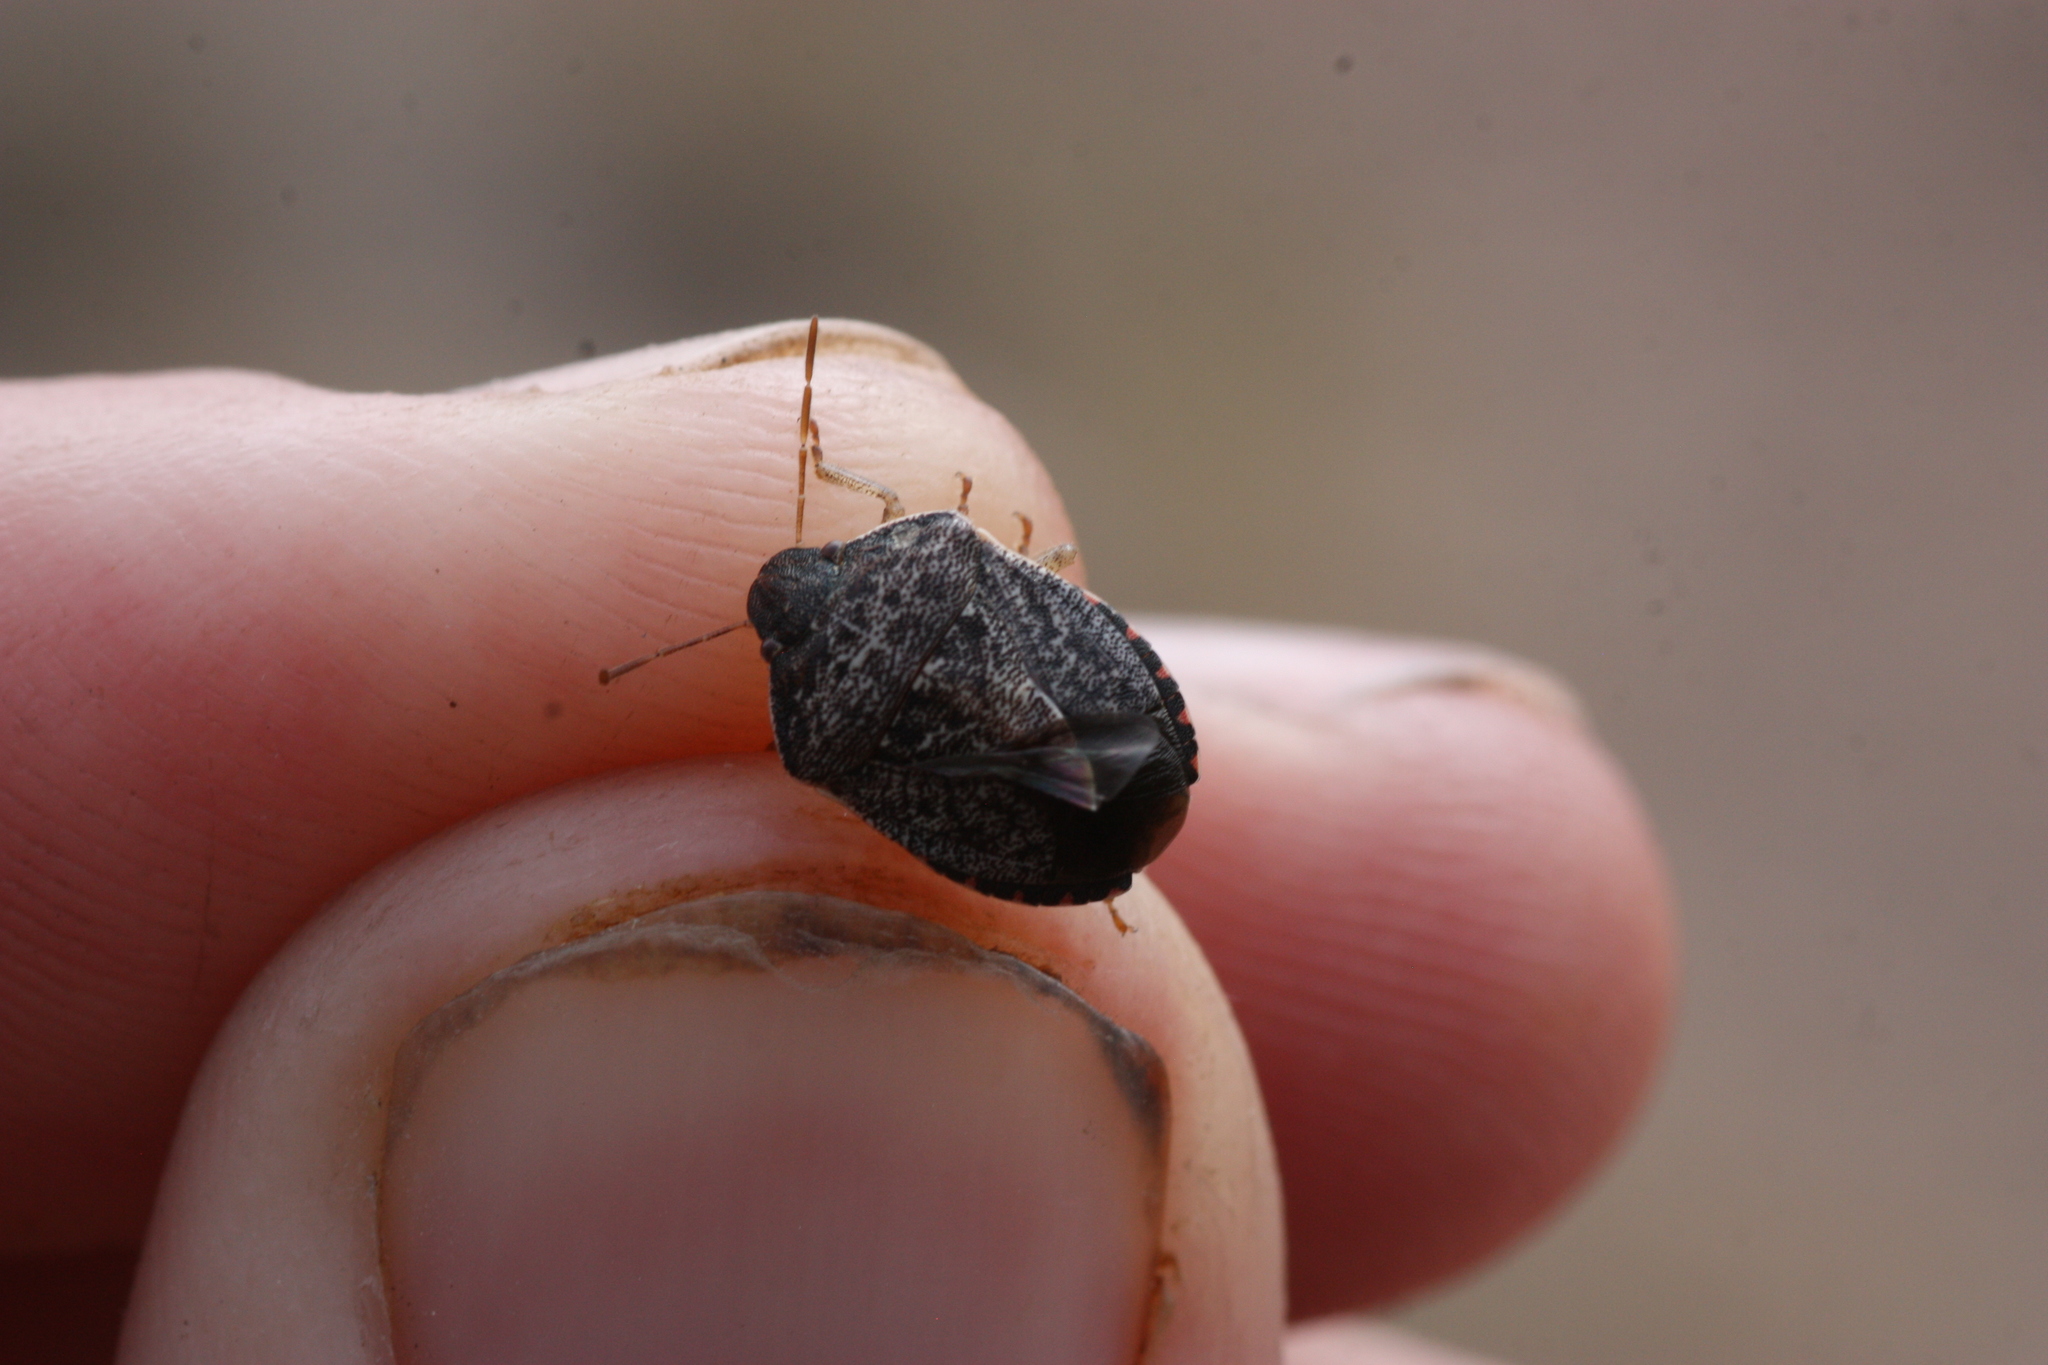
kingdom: Animalia
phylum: Arthropoda
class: Insecta
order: Hemiptera
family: Pentatomidae
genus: Holcostethus
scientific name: Holcostethus abbreviatus
